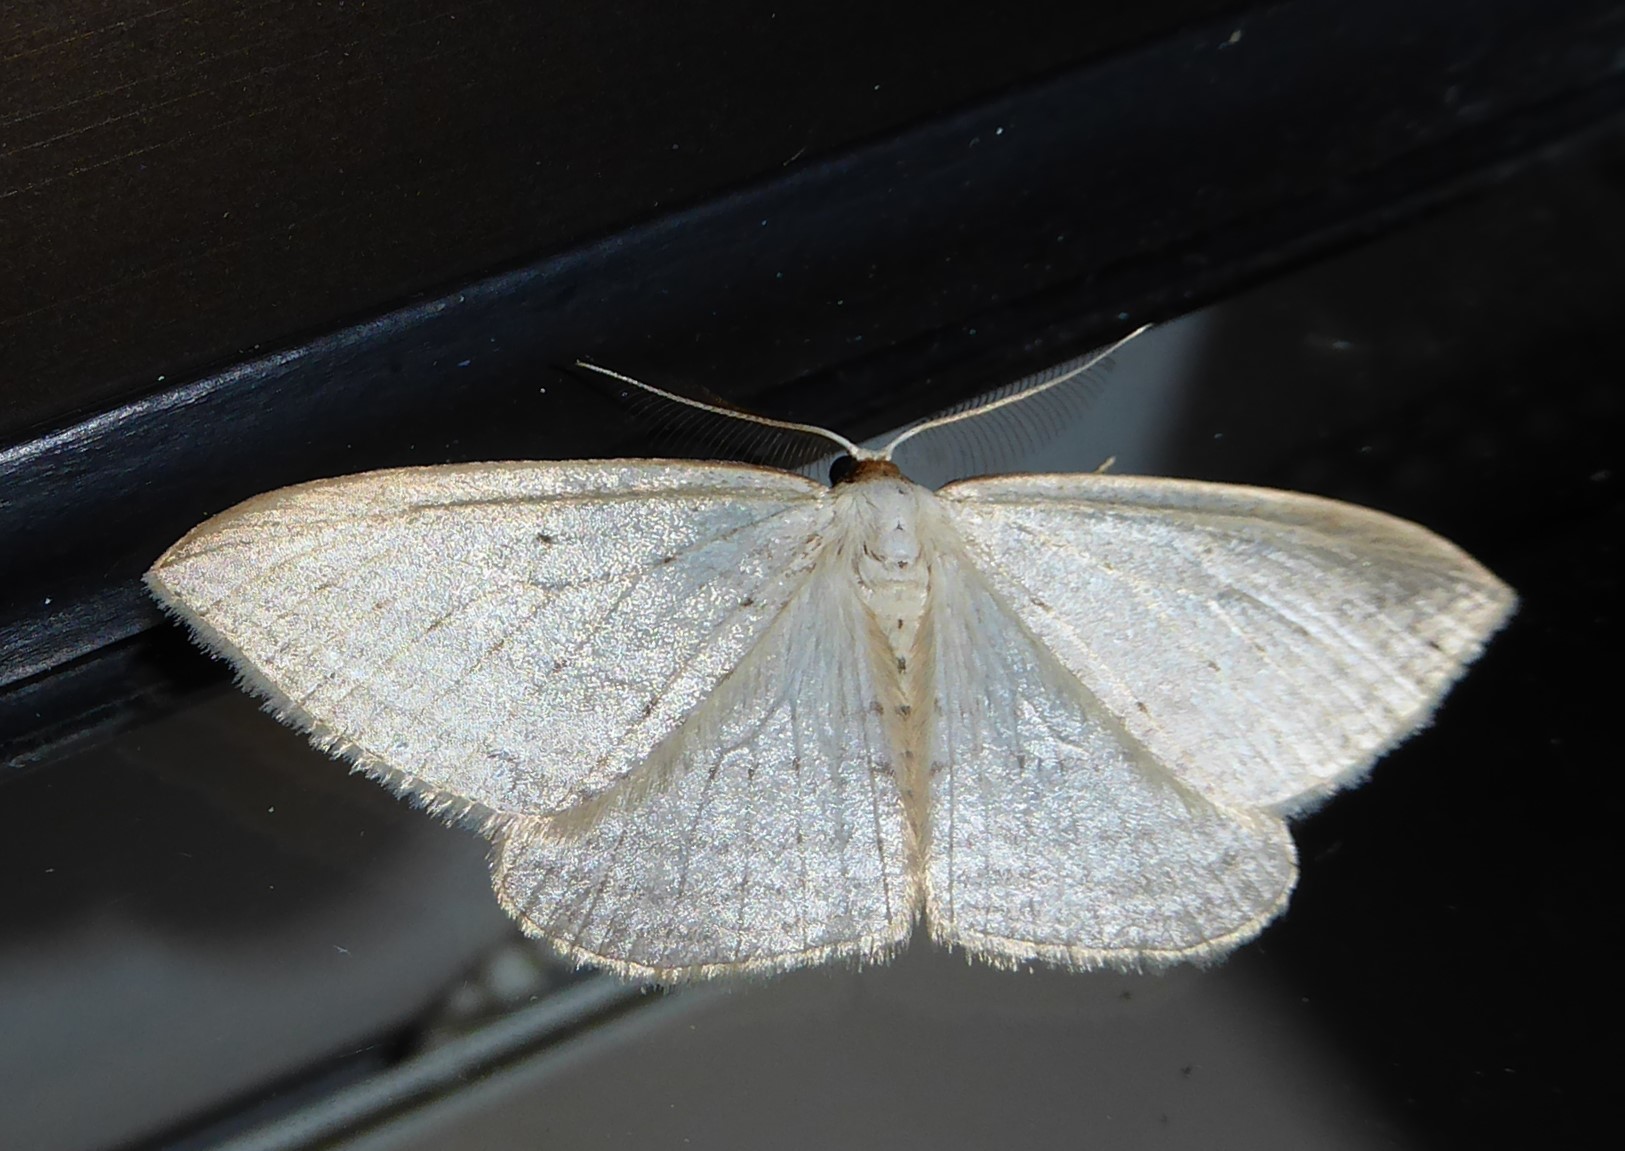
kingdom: Animalia
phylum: Arthropoda
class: Insecta
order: Lepidoptera
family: Geometridae
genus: Orthoclydon
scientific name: Orthoclydon praefectata
